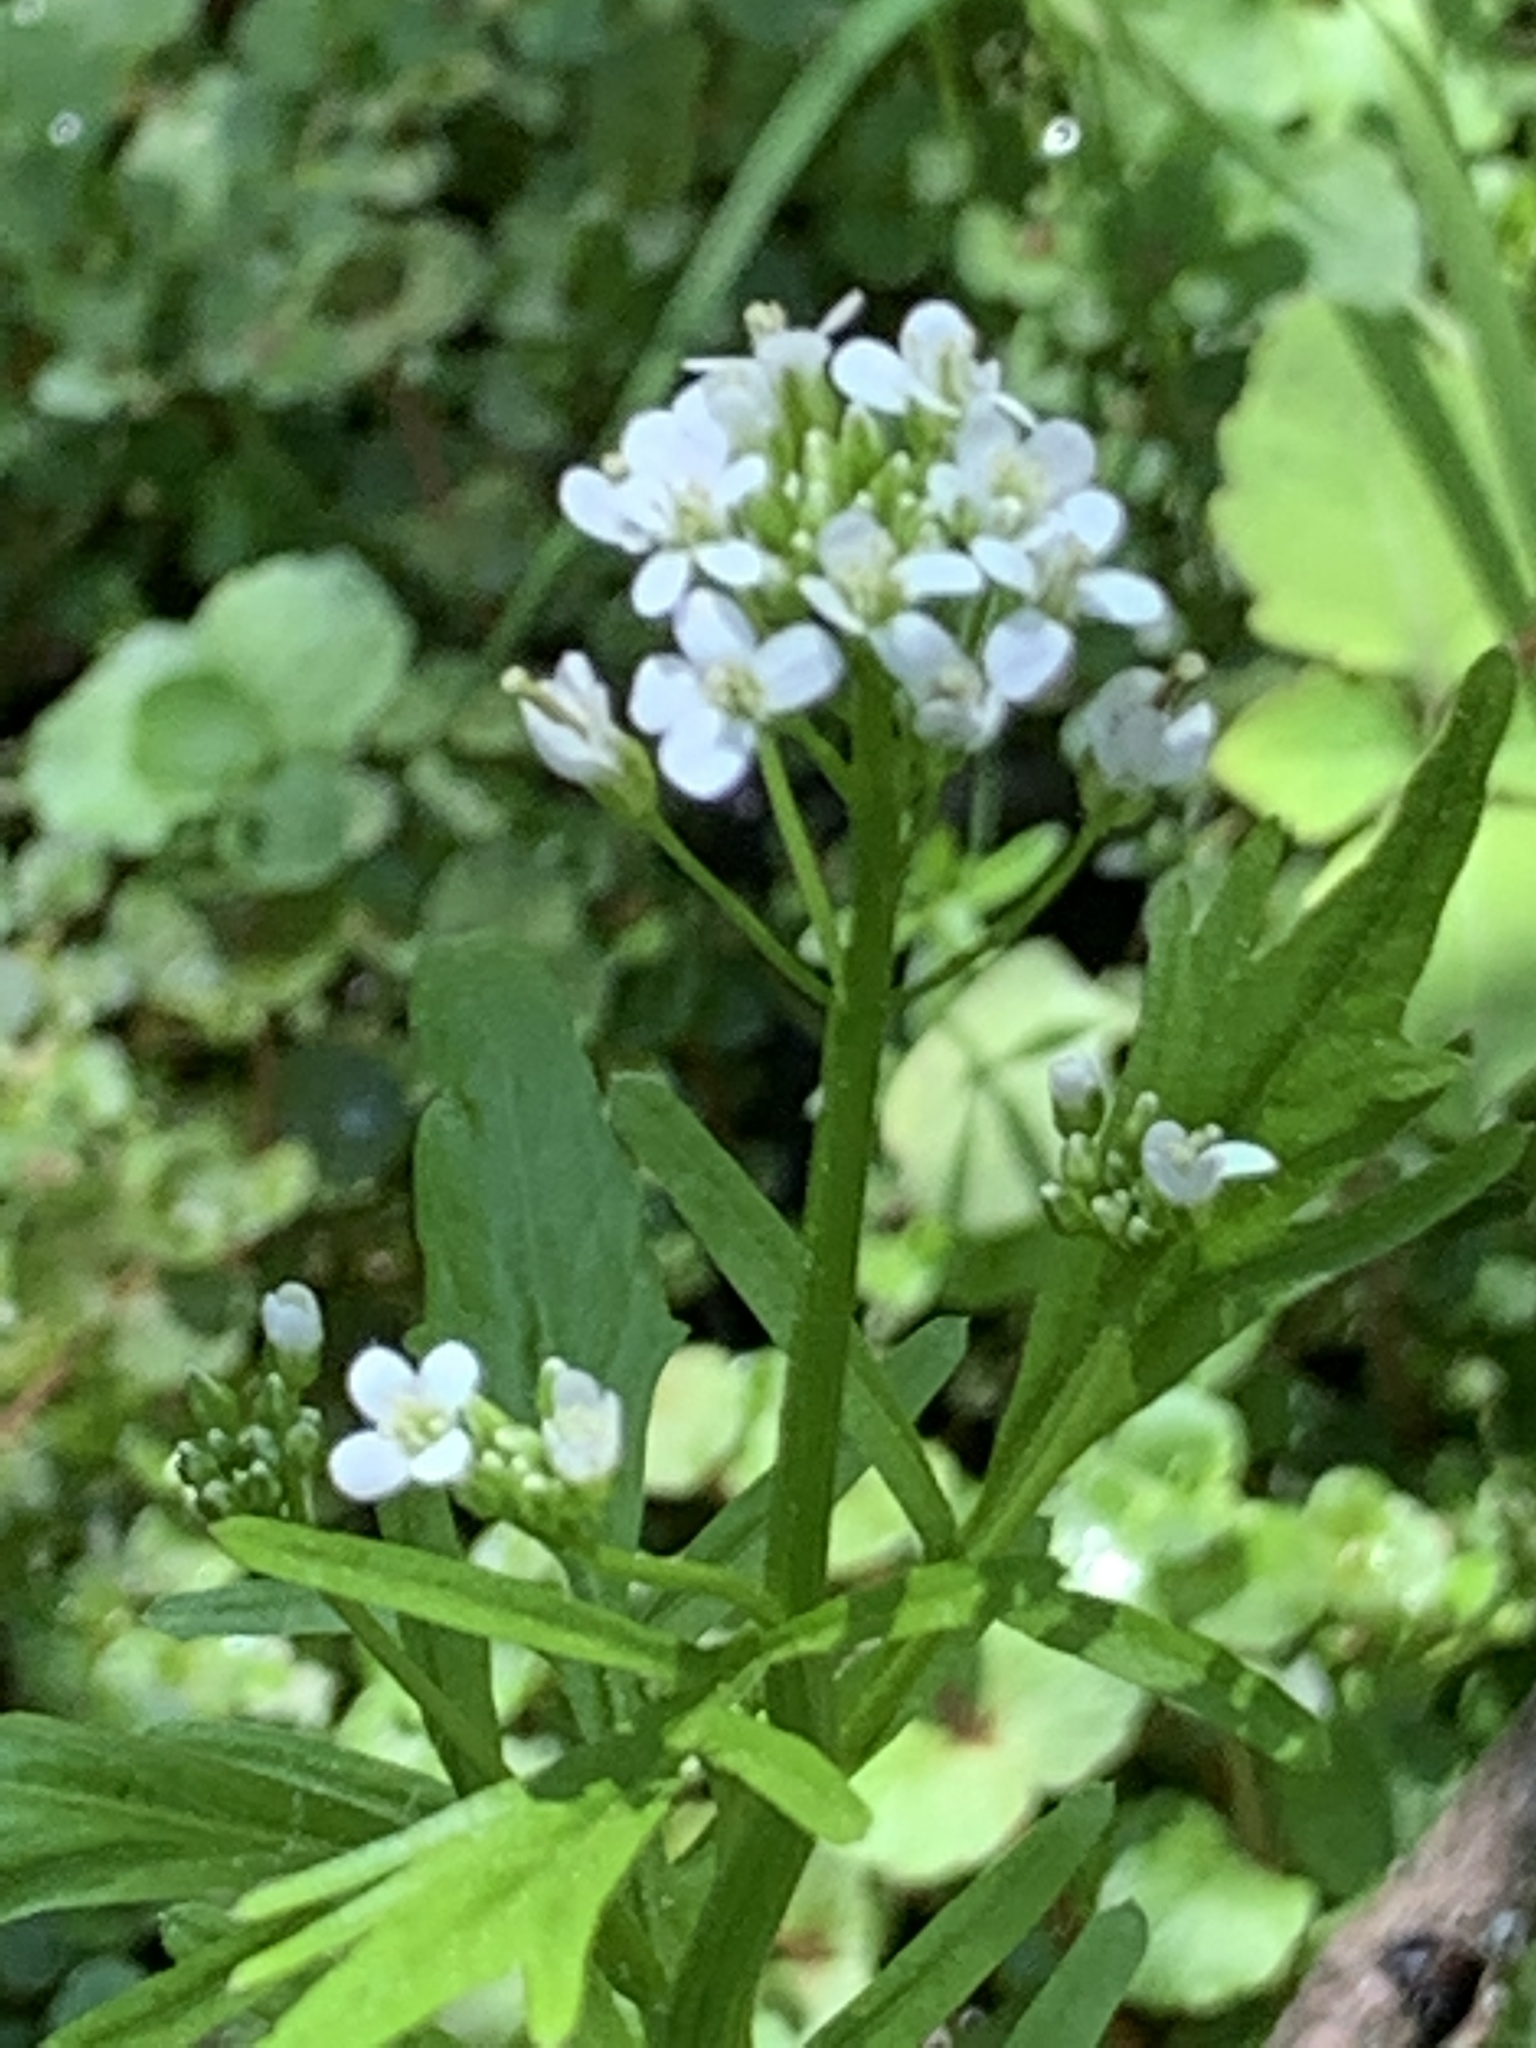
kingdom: Plantae
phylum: Tracheophyta
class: Magnoliopsida
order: Brassicales
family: Brassicaceae
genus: Cardamine
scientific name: Cardamine pensylvanica
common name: Pennsylvania bittercress
